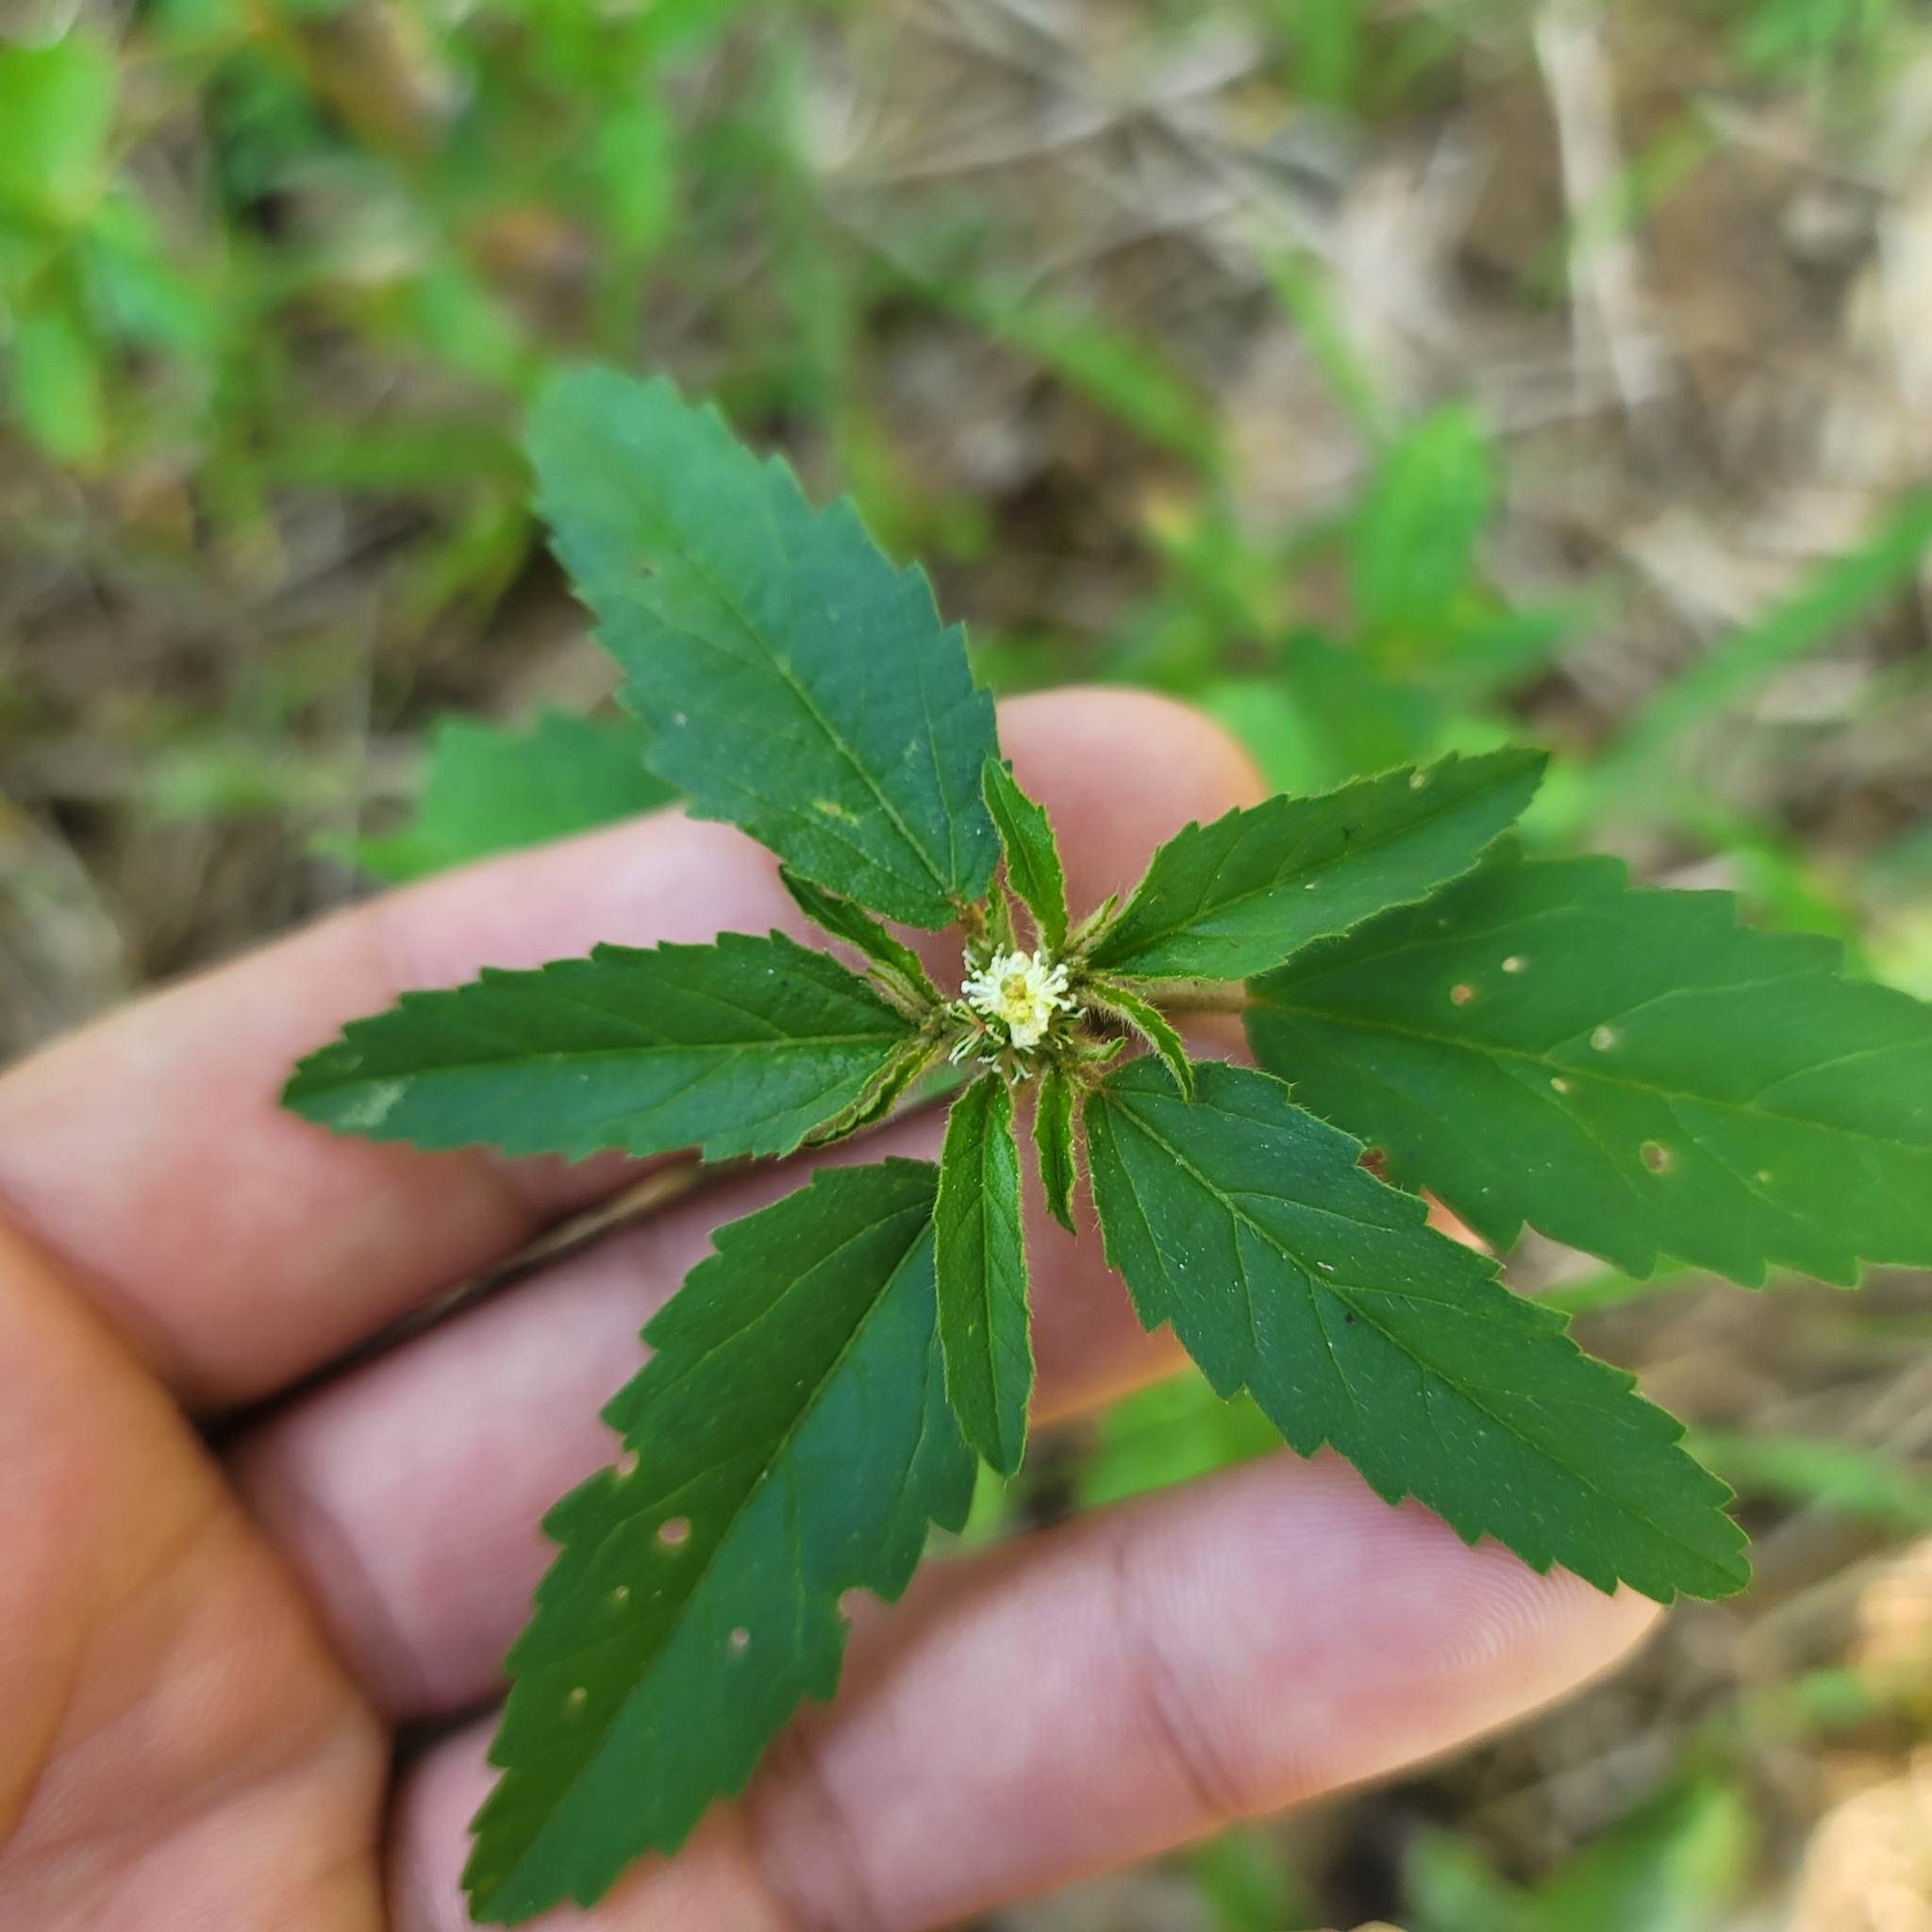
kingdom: Plantae
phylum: Tracheophyta
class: Magnoliopsida
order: Malpighiales
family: Euphorbiaceae
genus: Croton
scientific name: Croton glandulosus
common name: Tropic croton
